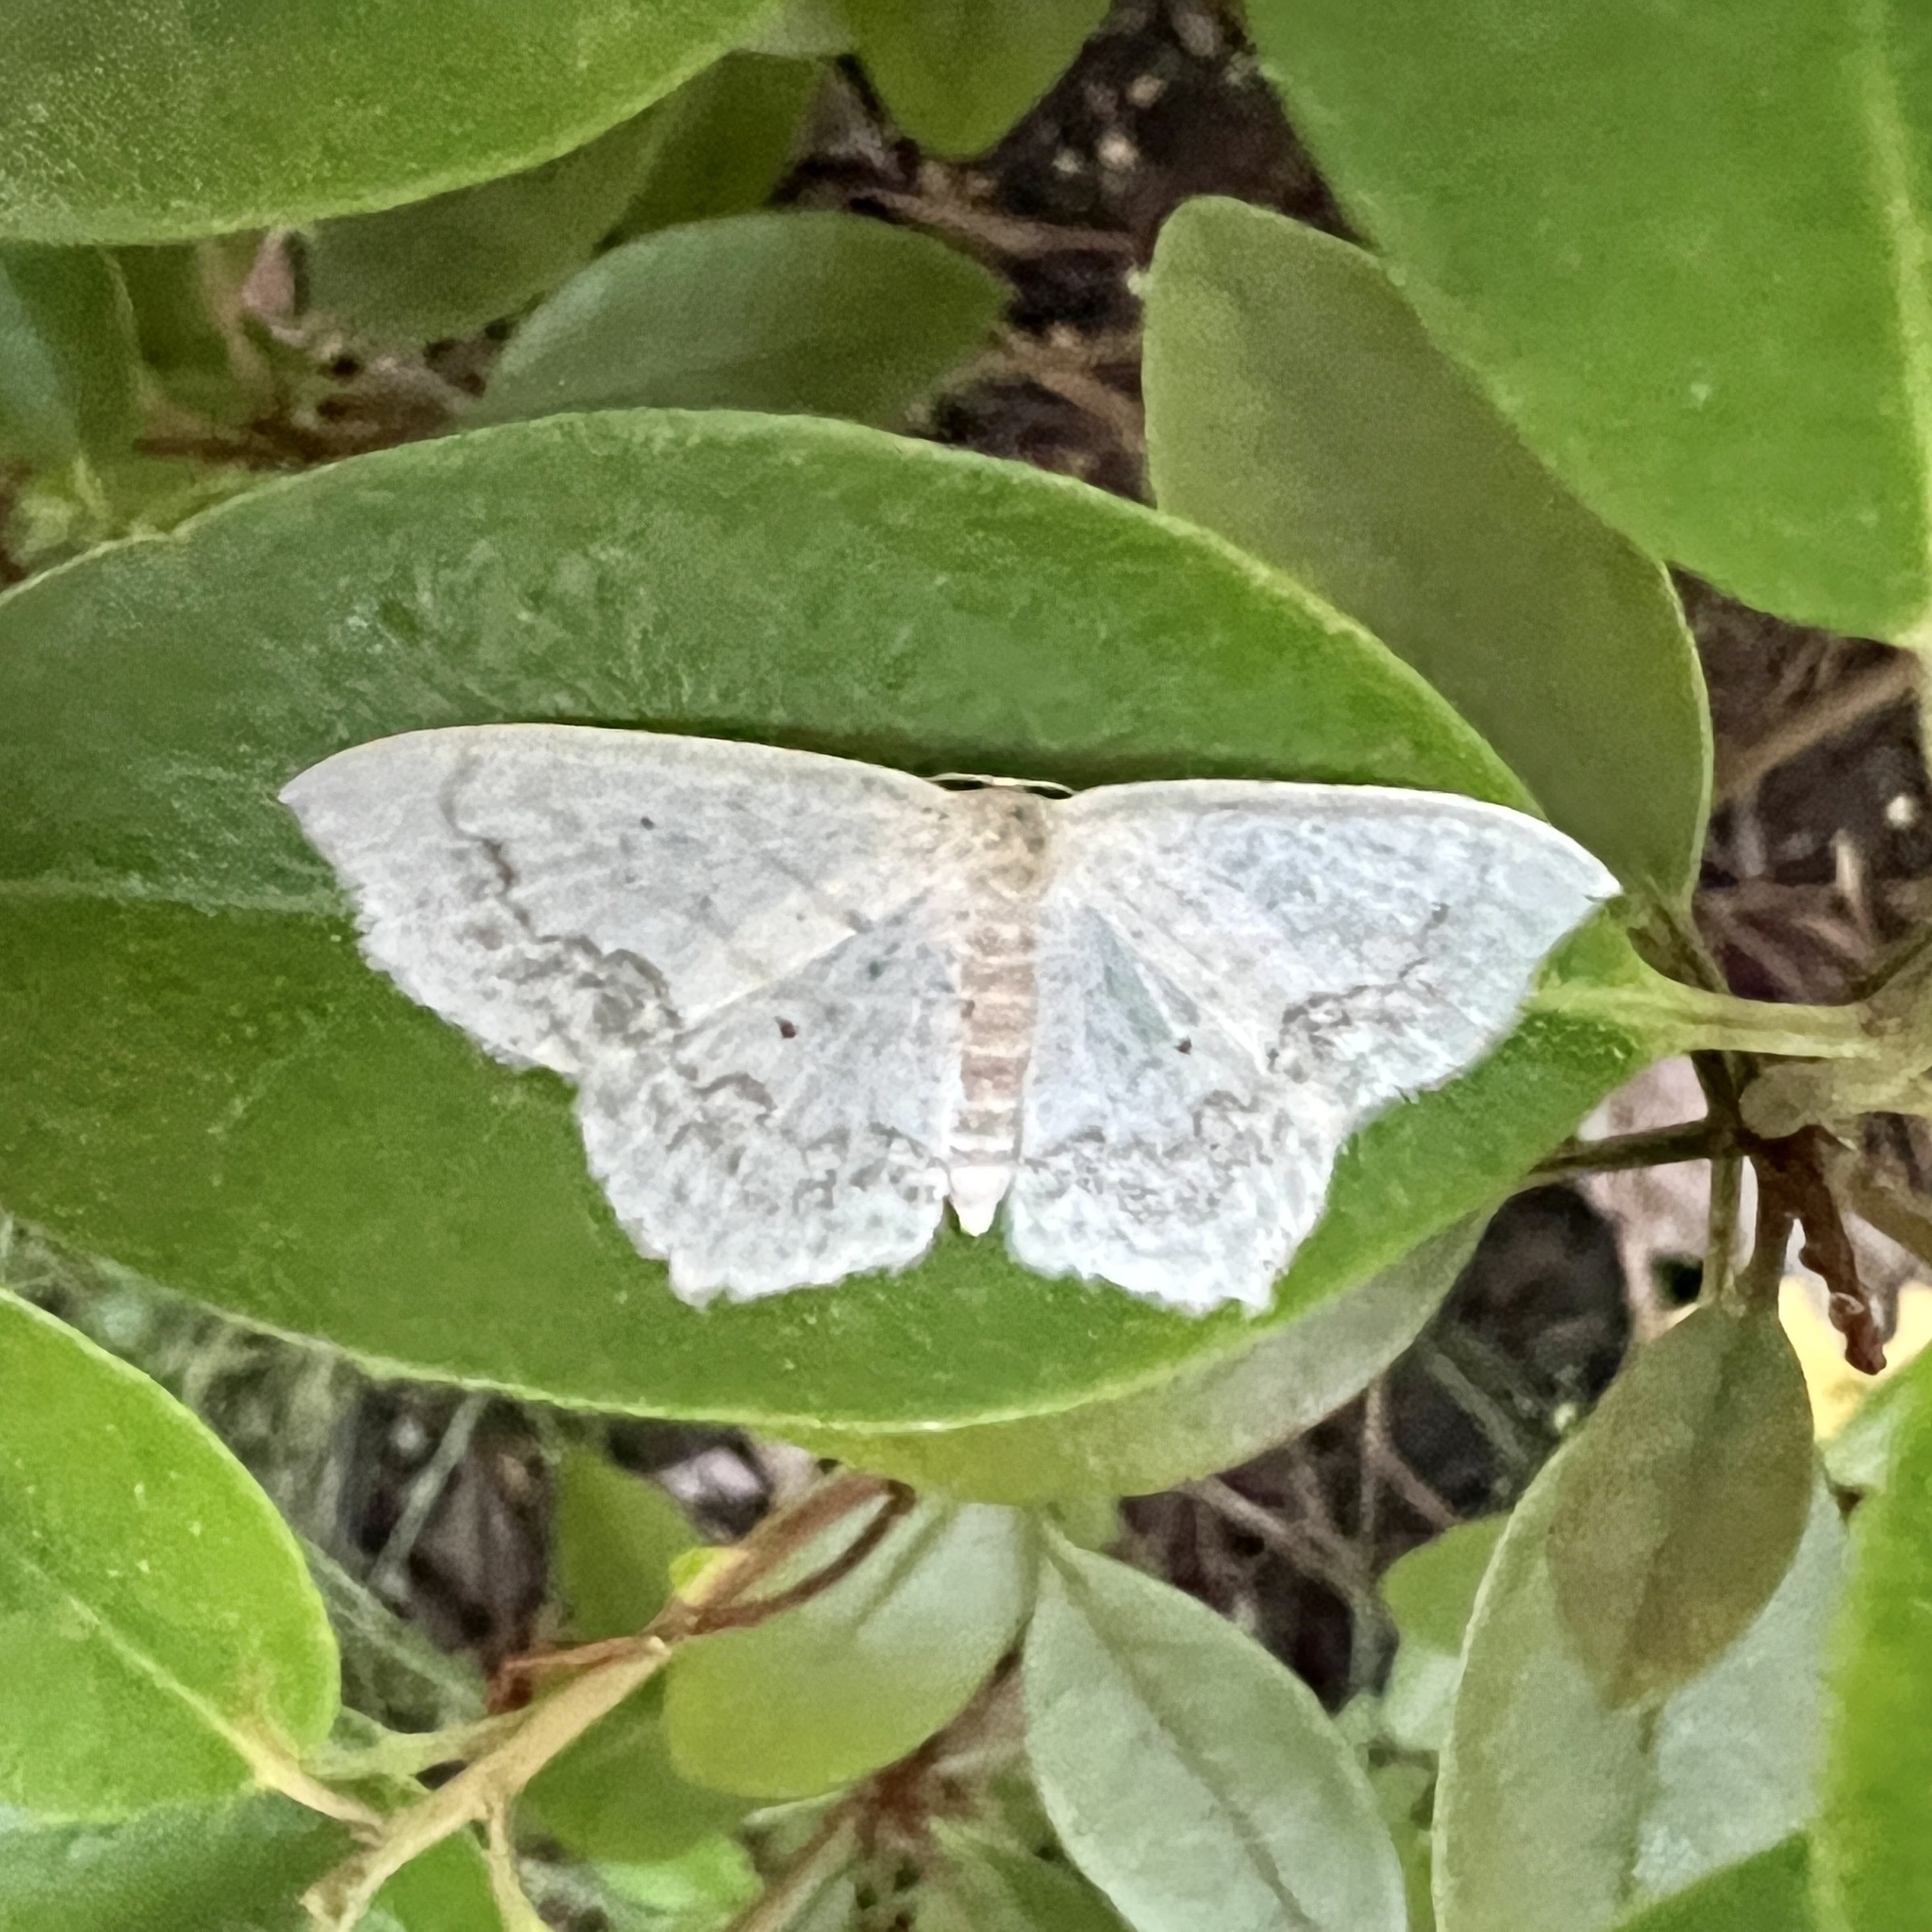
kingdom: Animalia
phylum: Arthropoda
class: Insecta
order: Lepidoptera
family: Geometridae
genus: Scopula
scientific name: Scopula limboundata
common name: Large lace border
